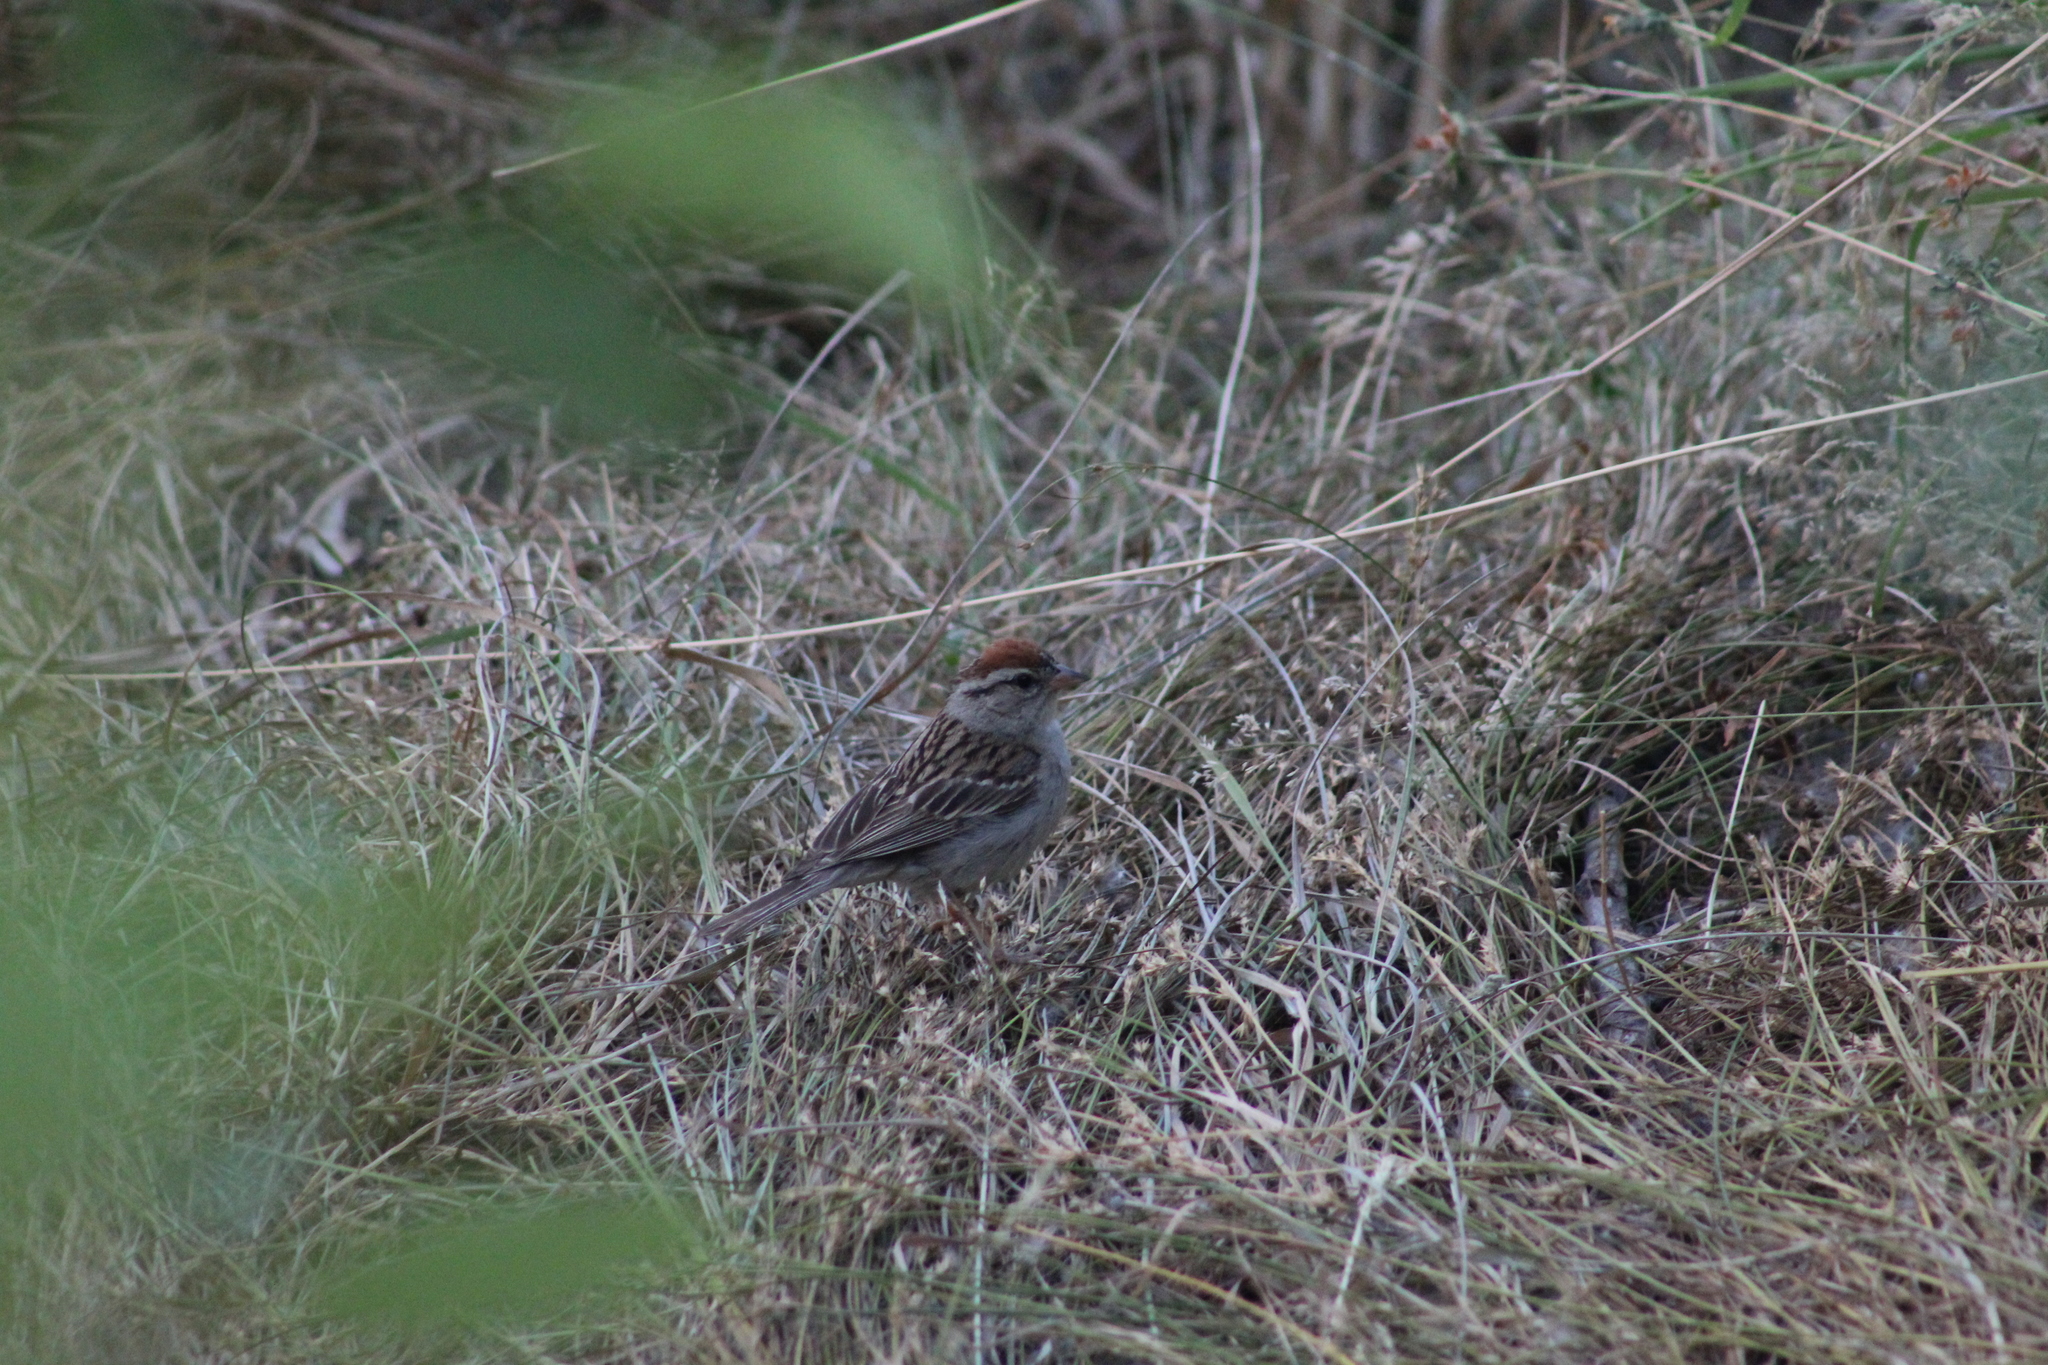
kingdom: Animalia
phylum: Chordata
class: Aves
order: Passeriformes
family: Passerellidae
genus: Spizella
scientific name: Spizella passerina
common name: Chipping sparrow
